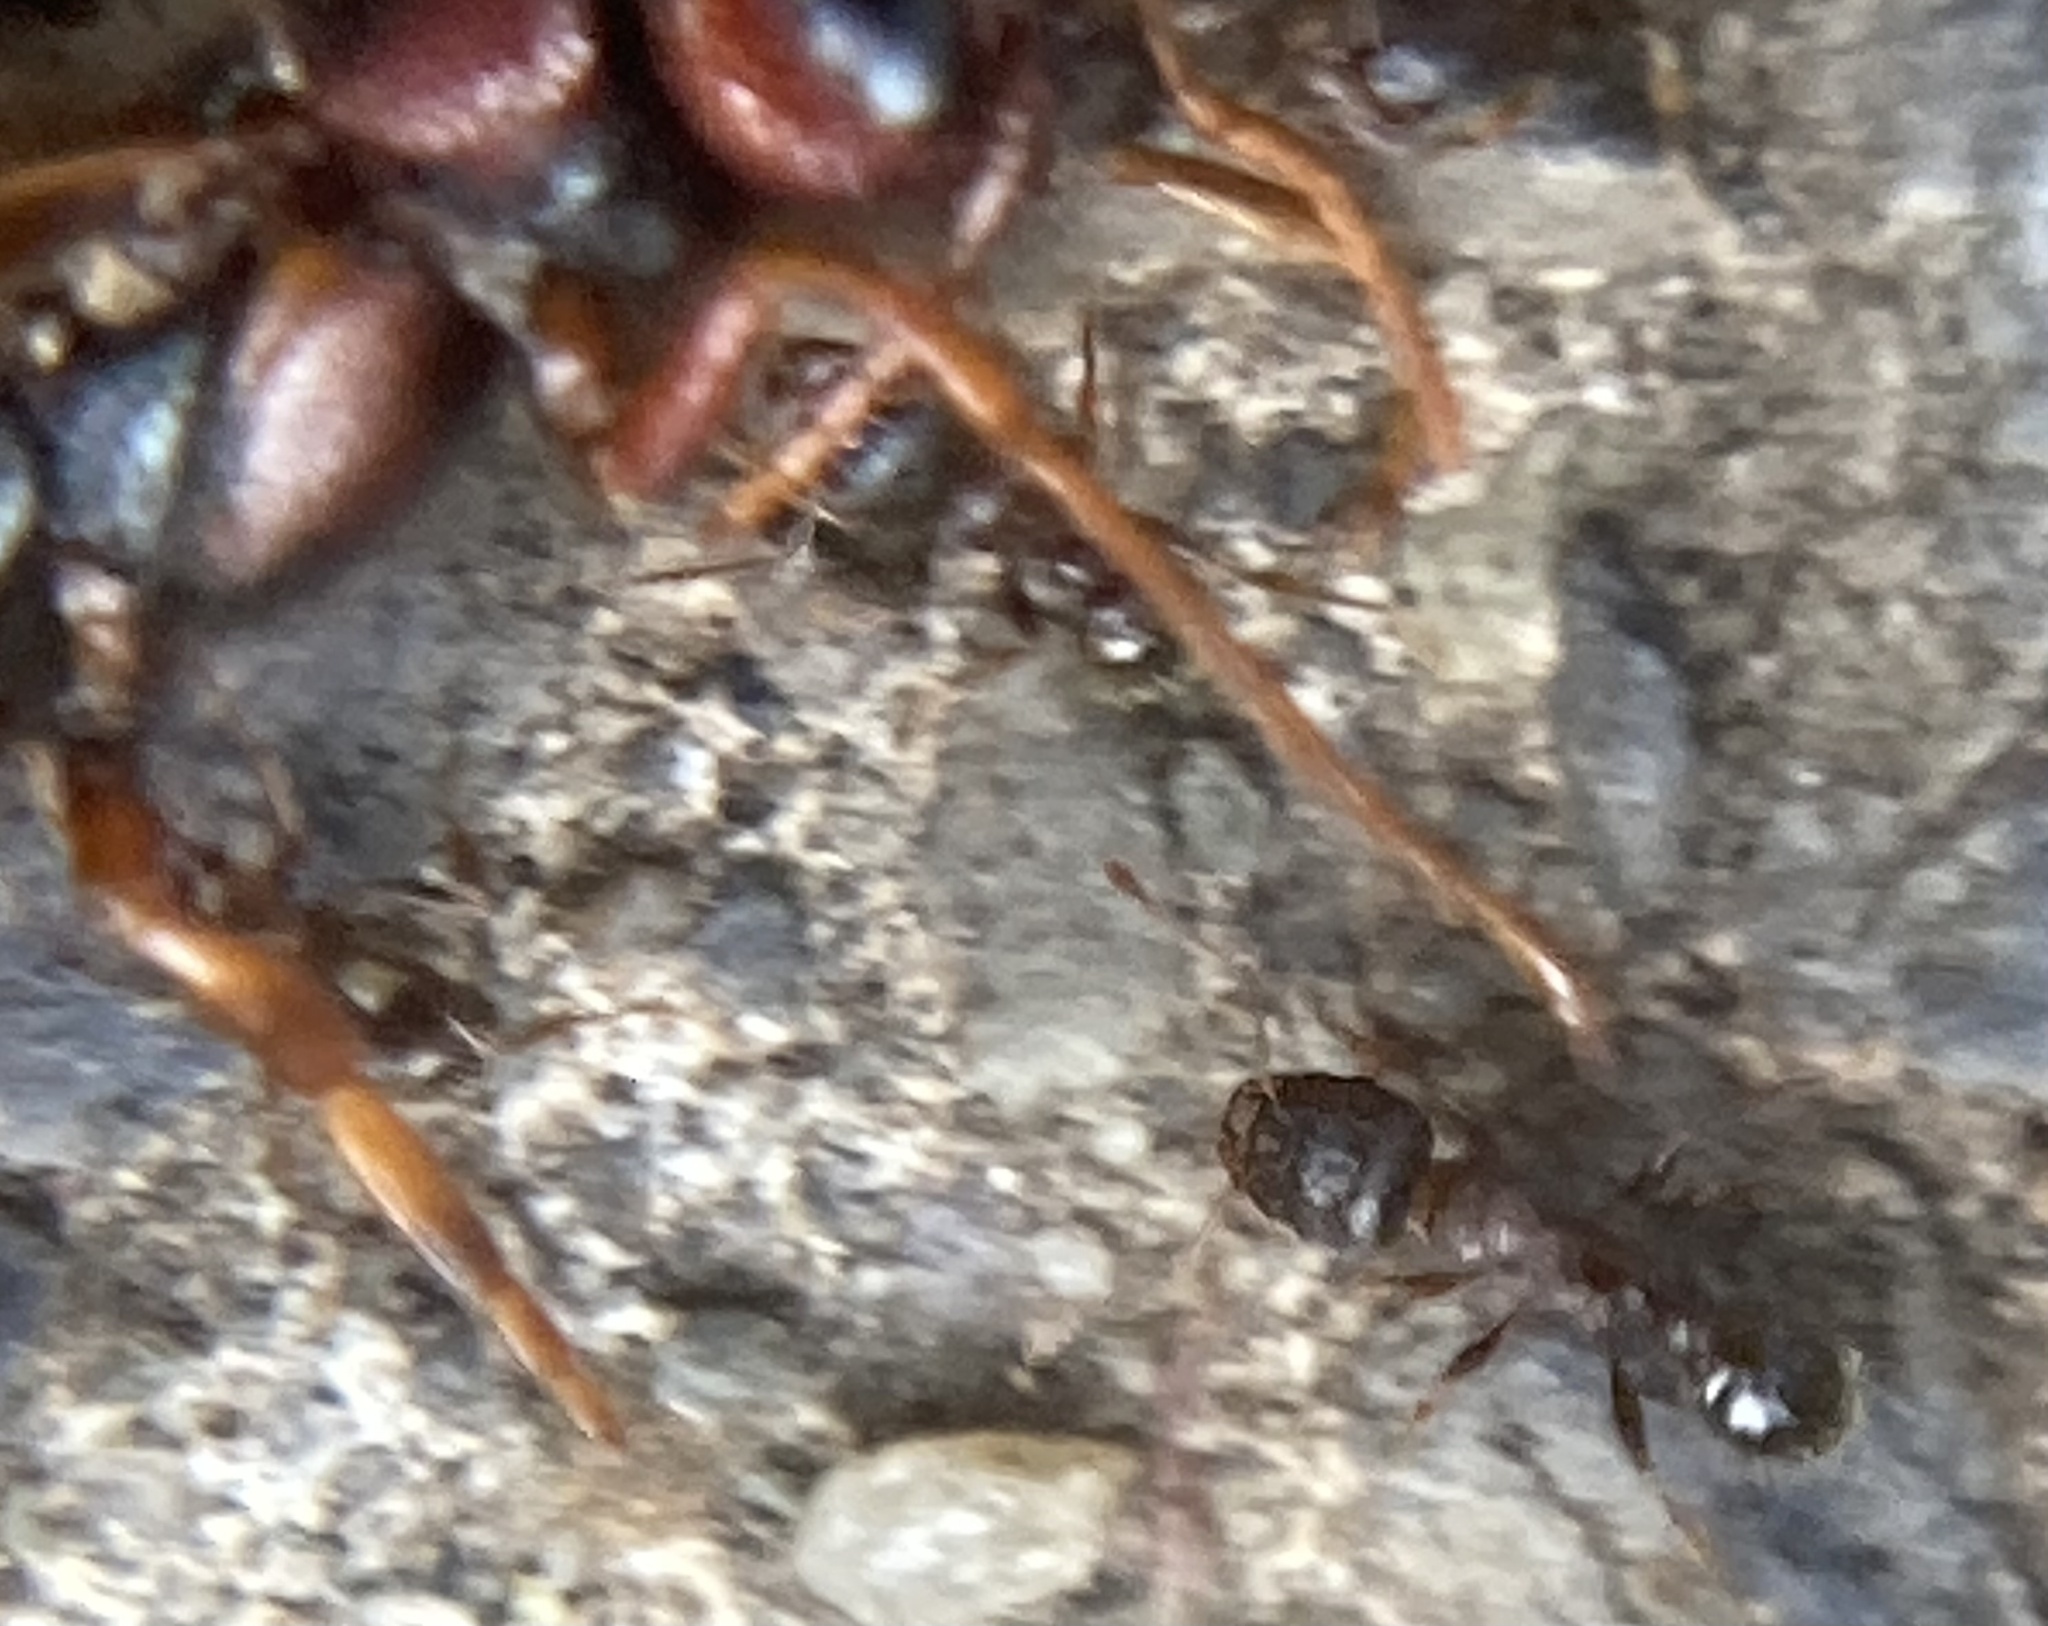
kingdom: Animalia
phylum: Arthropoda
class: Insecta
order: Hymenoptera
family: Formicidae
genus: Tetramorium
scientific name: Tetramorium immigrans
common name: Pavement ant
